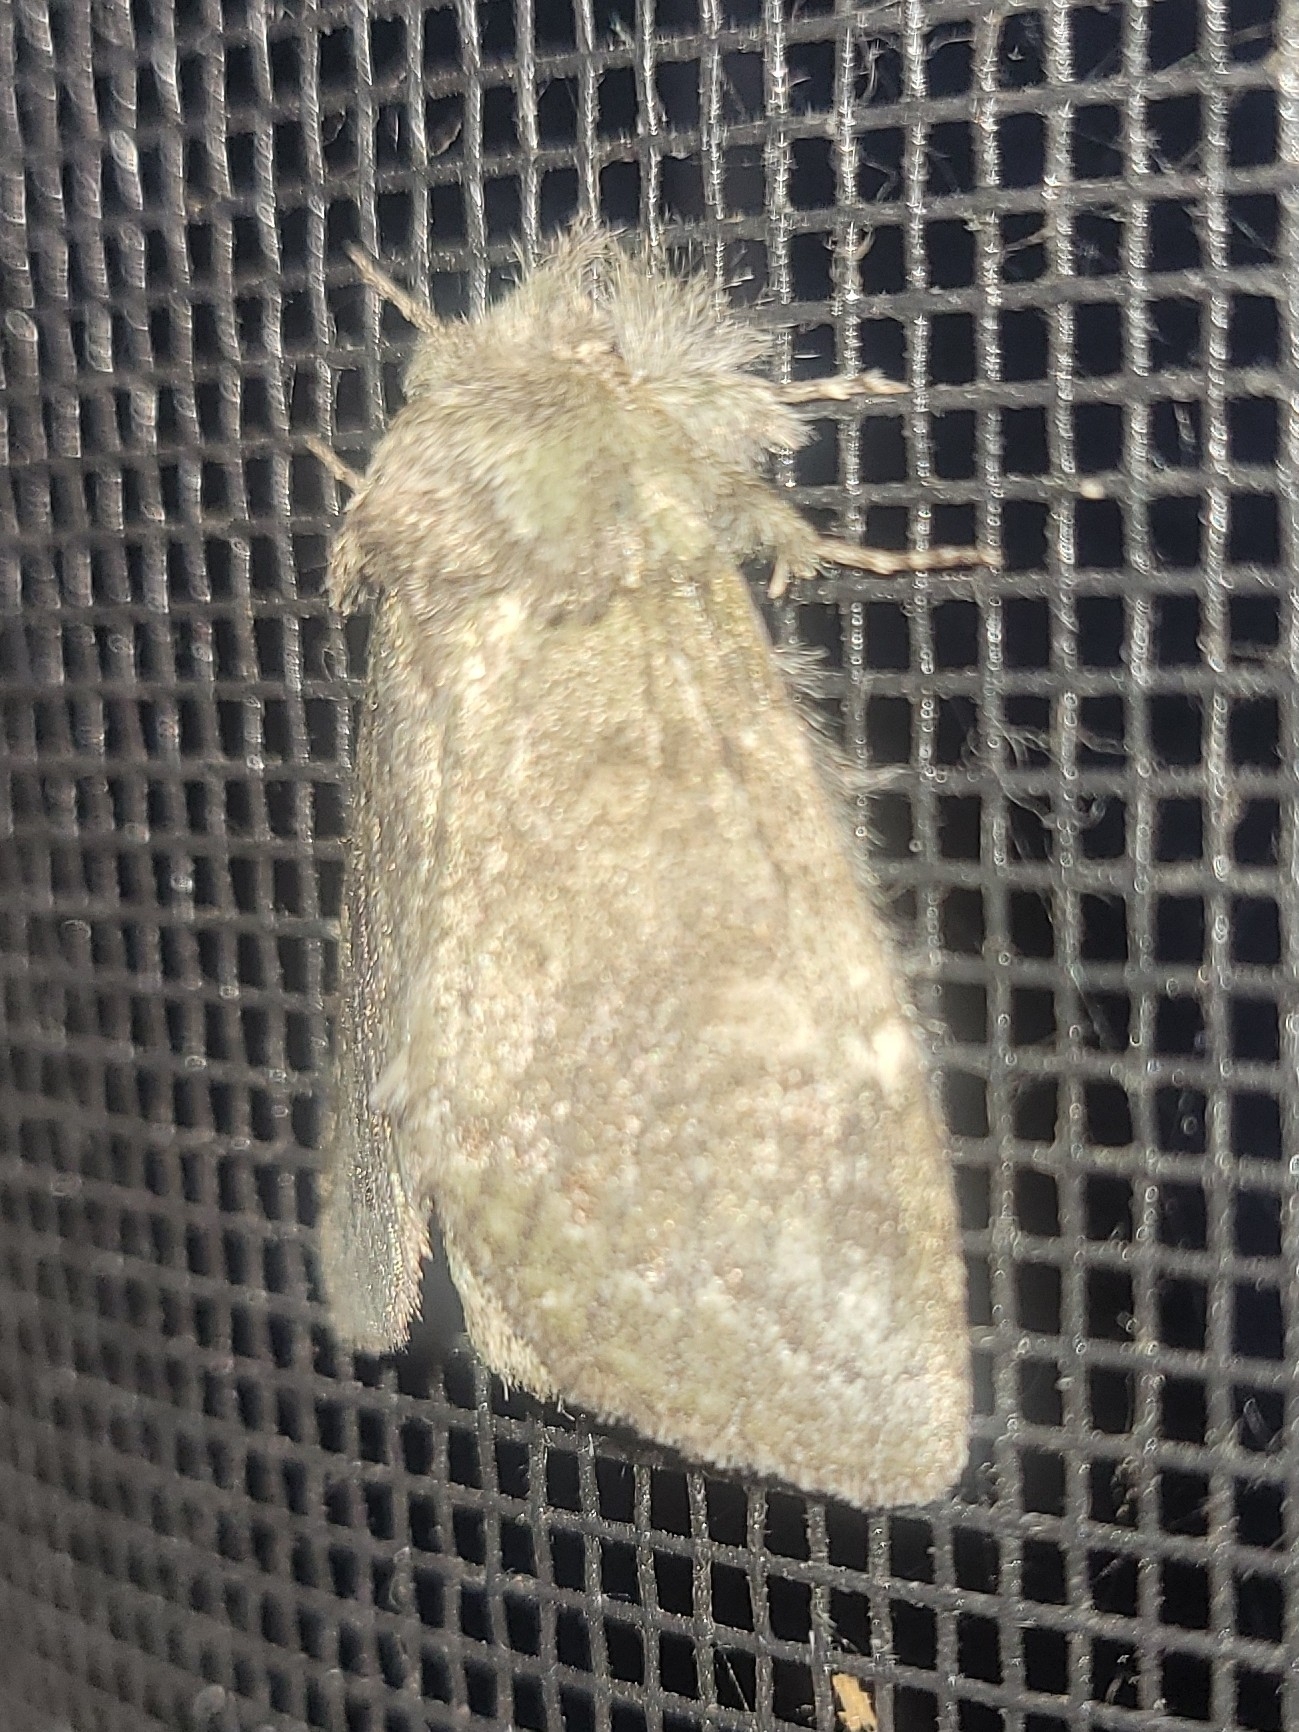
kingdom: Animalia
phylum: Arthropoda
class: Insecta
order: Lepidoptera
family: Notodontidae
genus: Disphragis
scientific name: Disphragis Cecrita guttivitta
